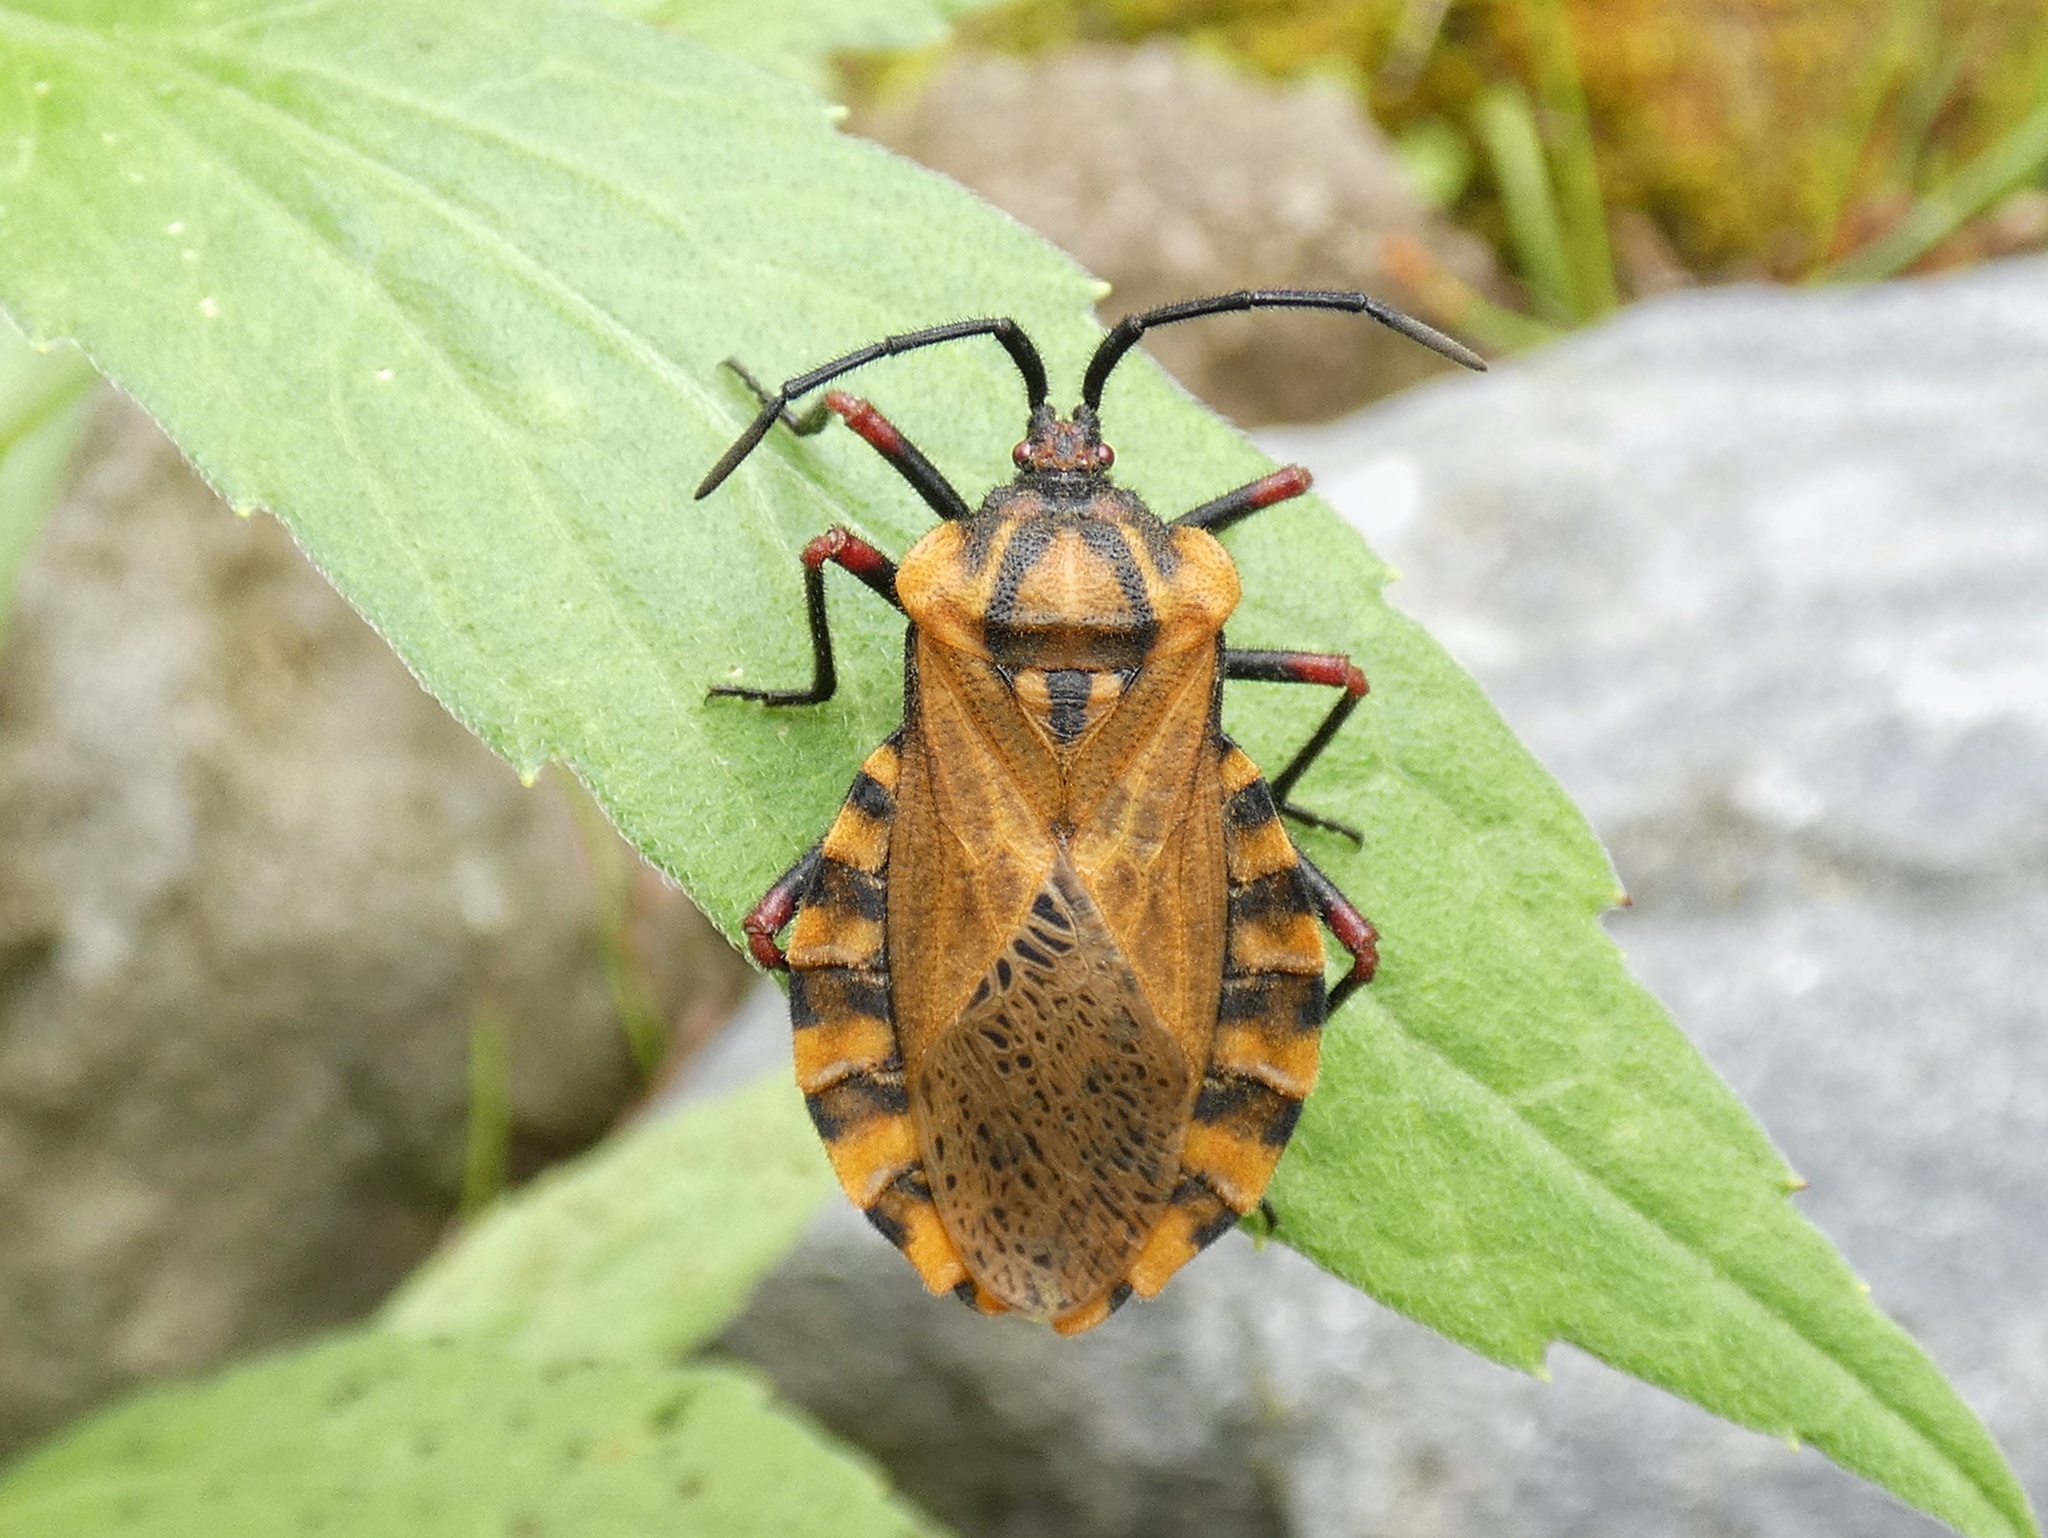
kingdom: Animalia
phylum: Arthropoda
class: Insecta
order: Hemiptera
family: Coreidae
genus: Spartocera
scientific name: Spartocera fusca
